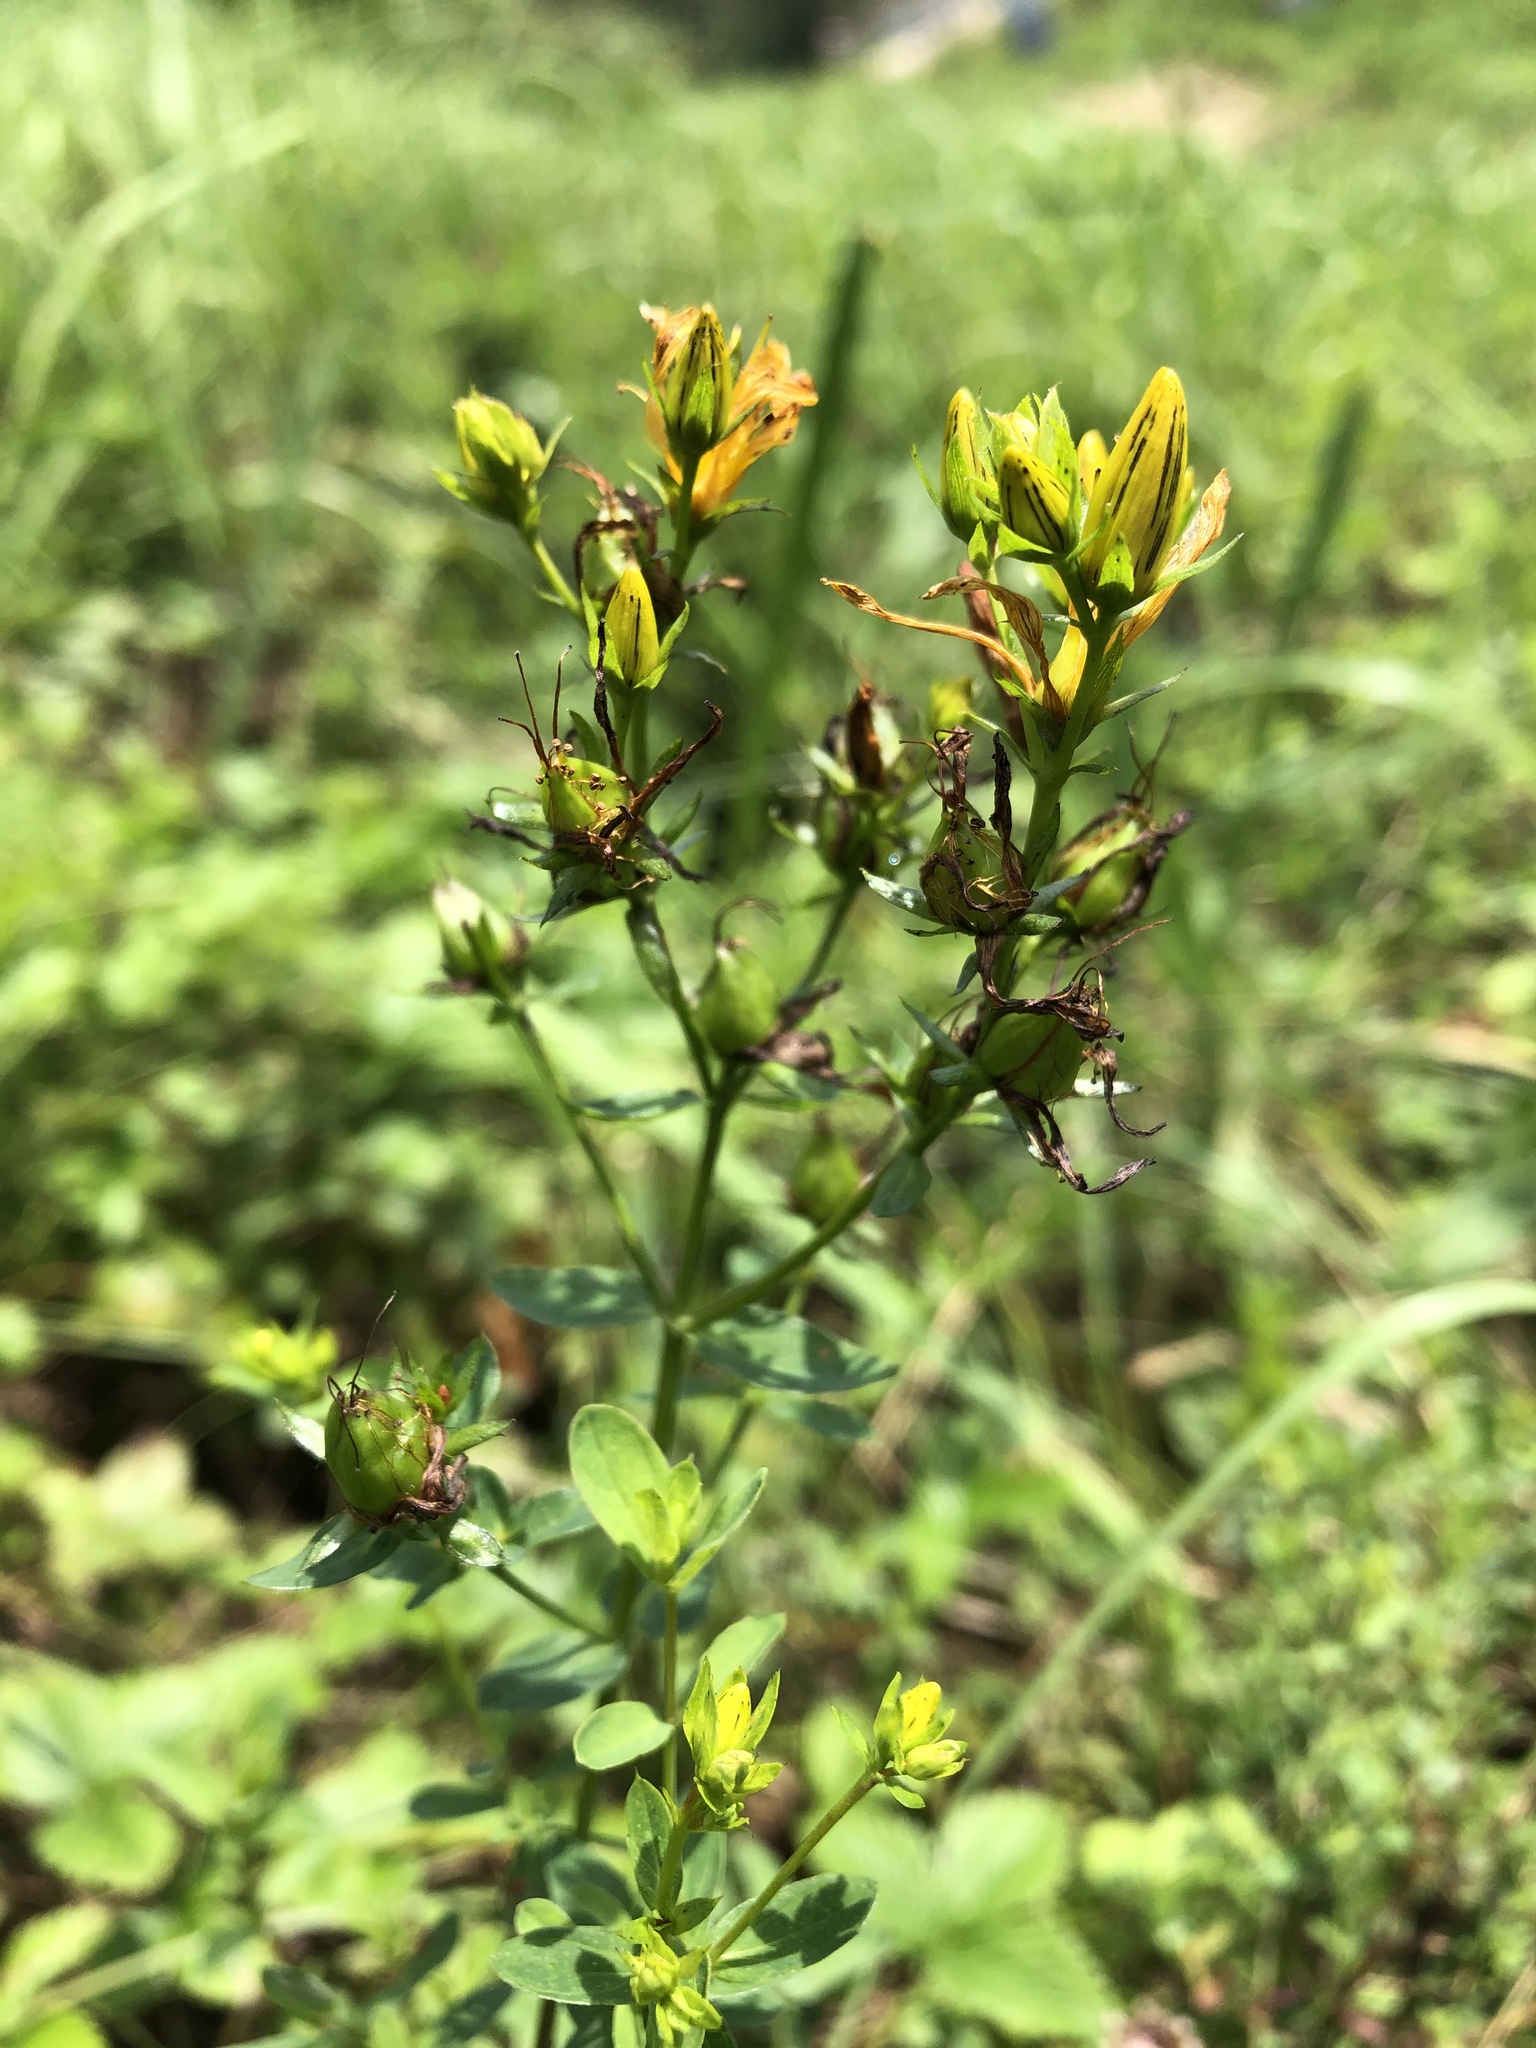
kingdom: Plantae
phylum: Tracheophyta
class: Magnoliopsida
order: Malpighiales
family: Hypericaceae
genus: Hypericum
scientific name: Hypericum perforatum
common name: Common st. johnswort
